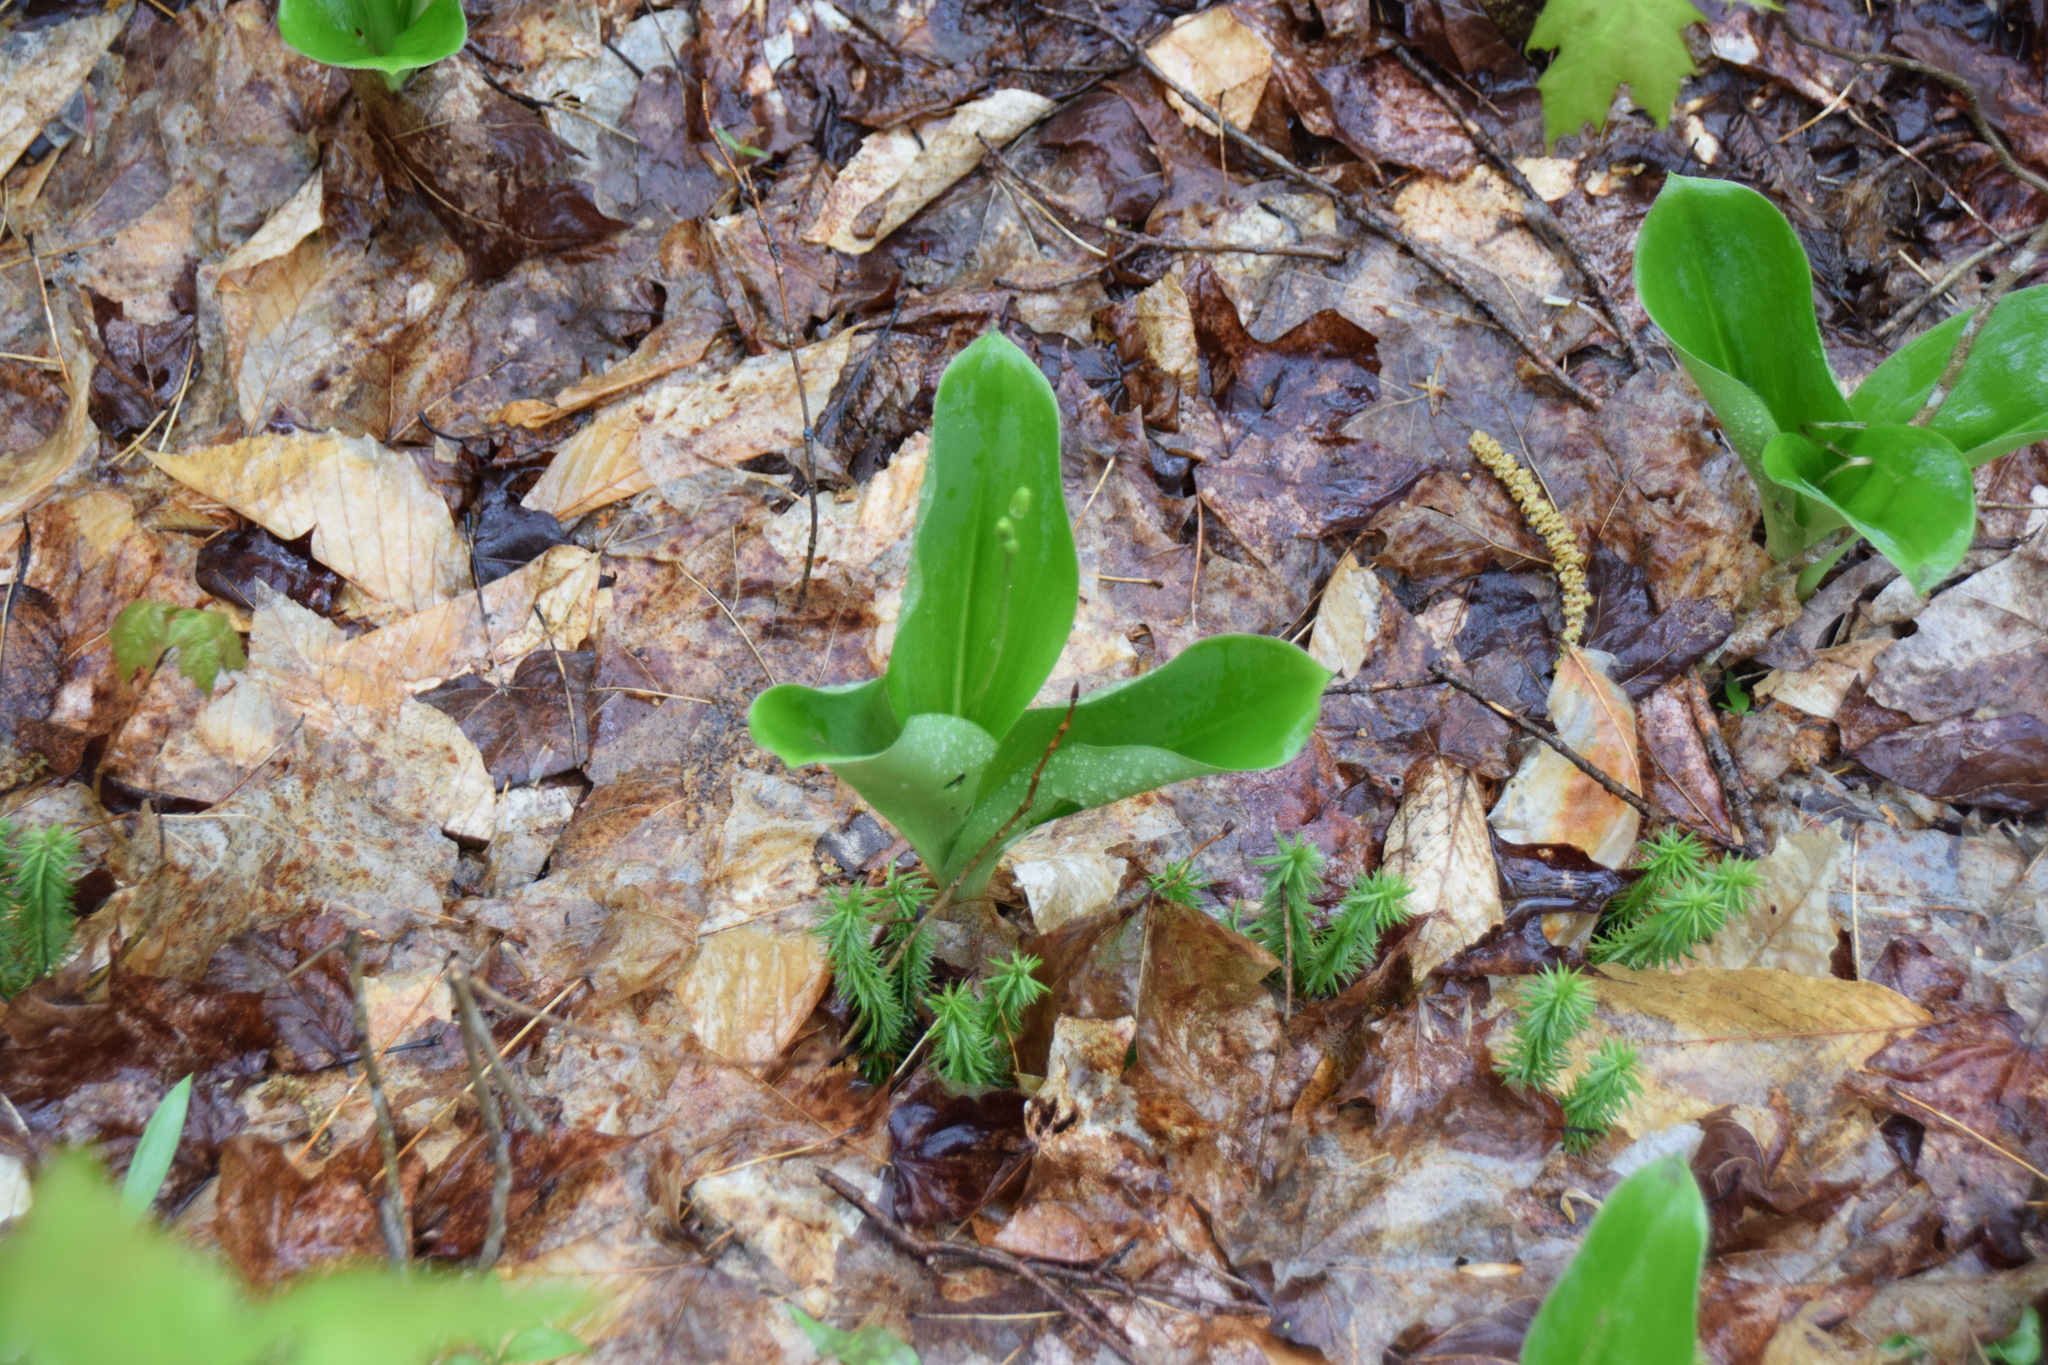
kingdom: Plantae
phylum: Tracheophyta
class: Liliopsida
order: Liliales
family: Liliaceae
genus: Clintonia
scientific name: Clintonia borealis
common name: Yellow clintonia
